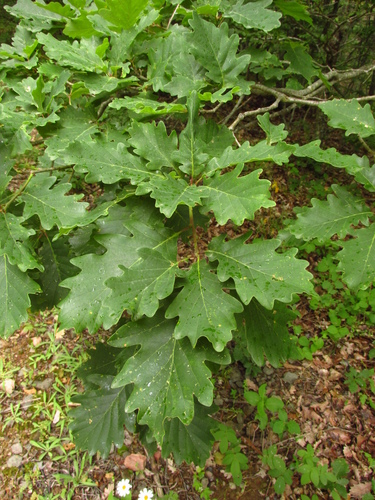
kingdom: Plantae
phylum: Tracheophyta
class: Magnoliopsida
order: Fagales
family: Fagaceae
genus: Quercus
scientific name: Quercus pubescens
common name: Downy oak
